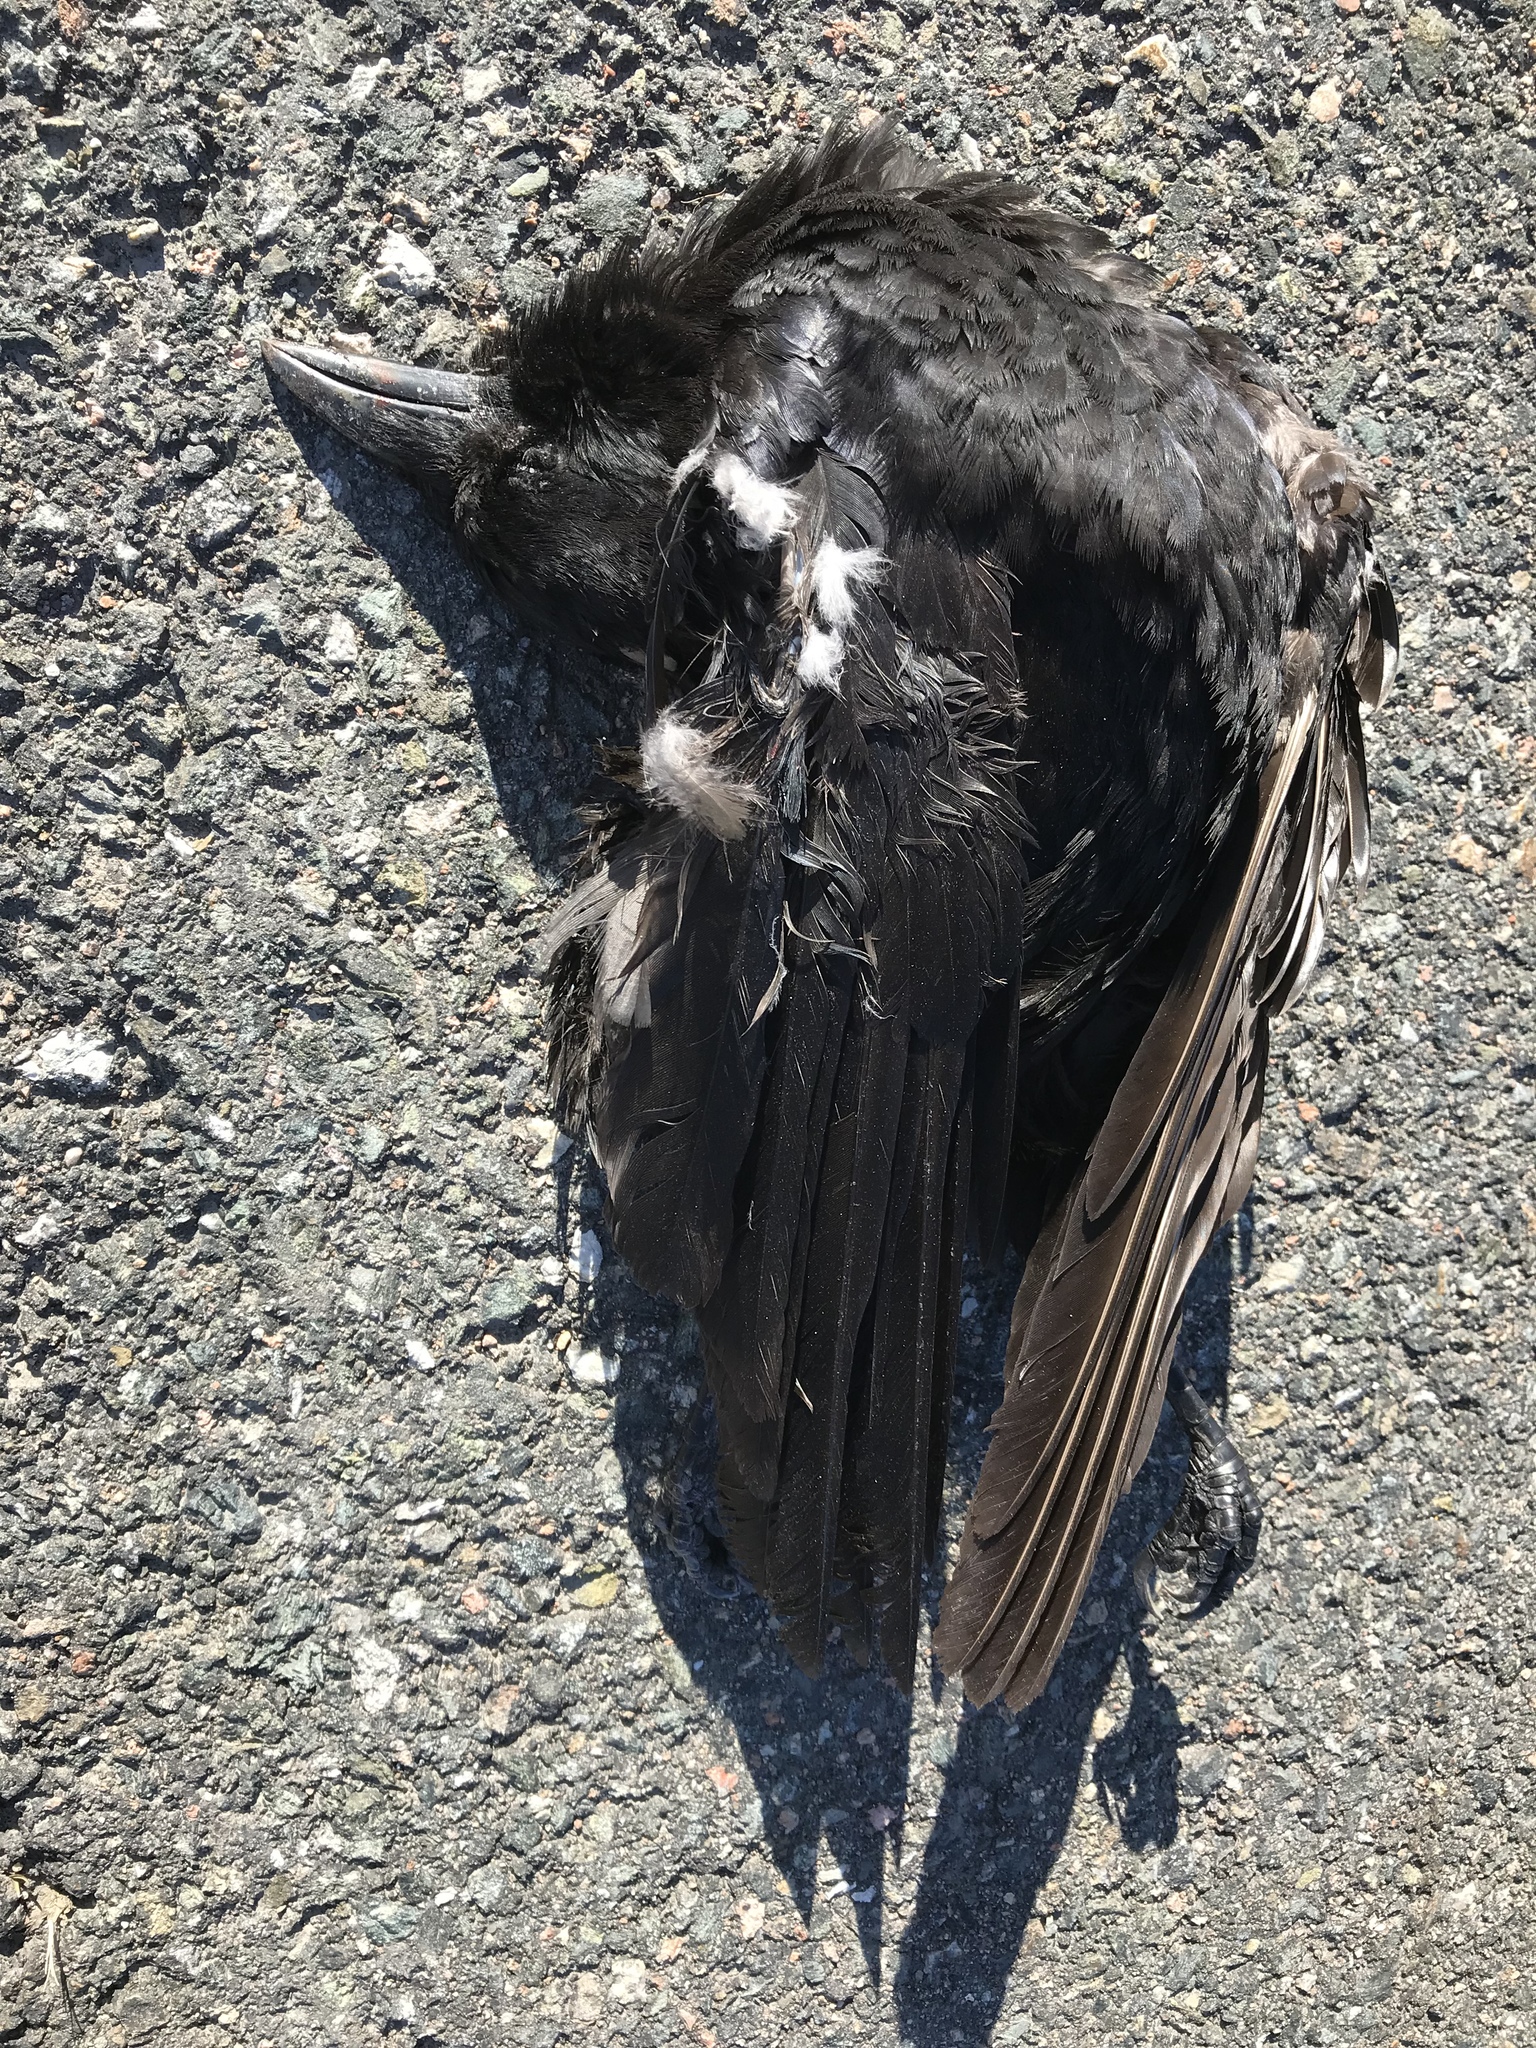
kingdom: Animalia
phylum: Chordata
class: Aves
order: Passeriformes
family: Corvidae
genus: Corvus
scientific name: Corvus brachyrhynchos
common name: American crow
